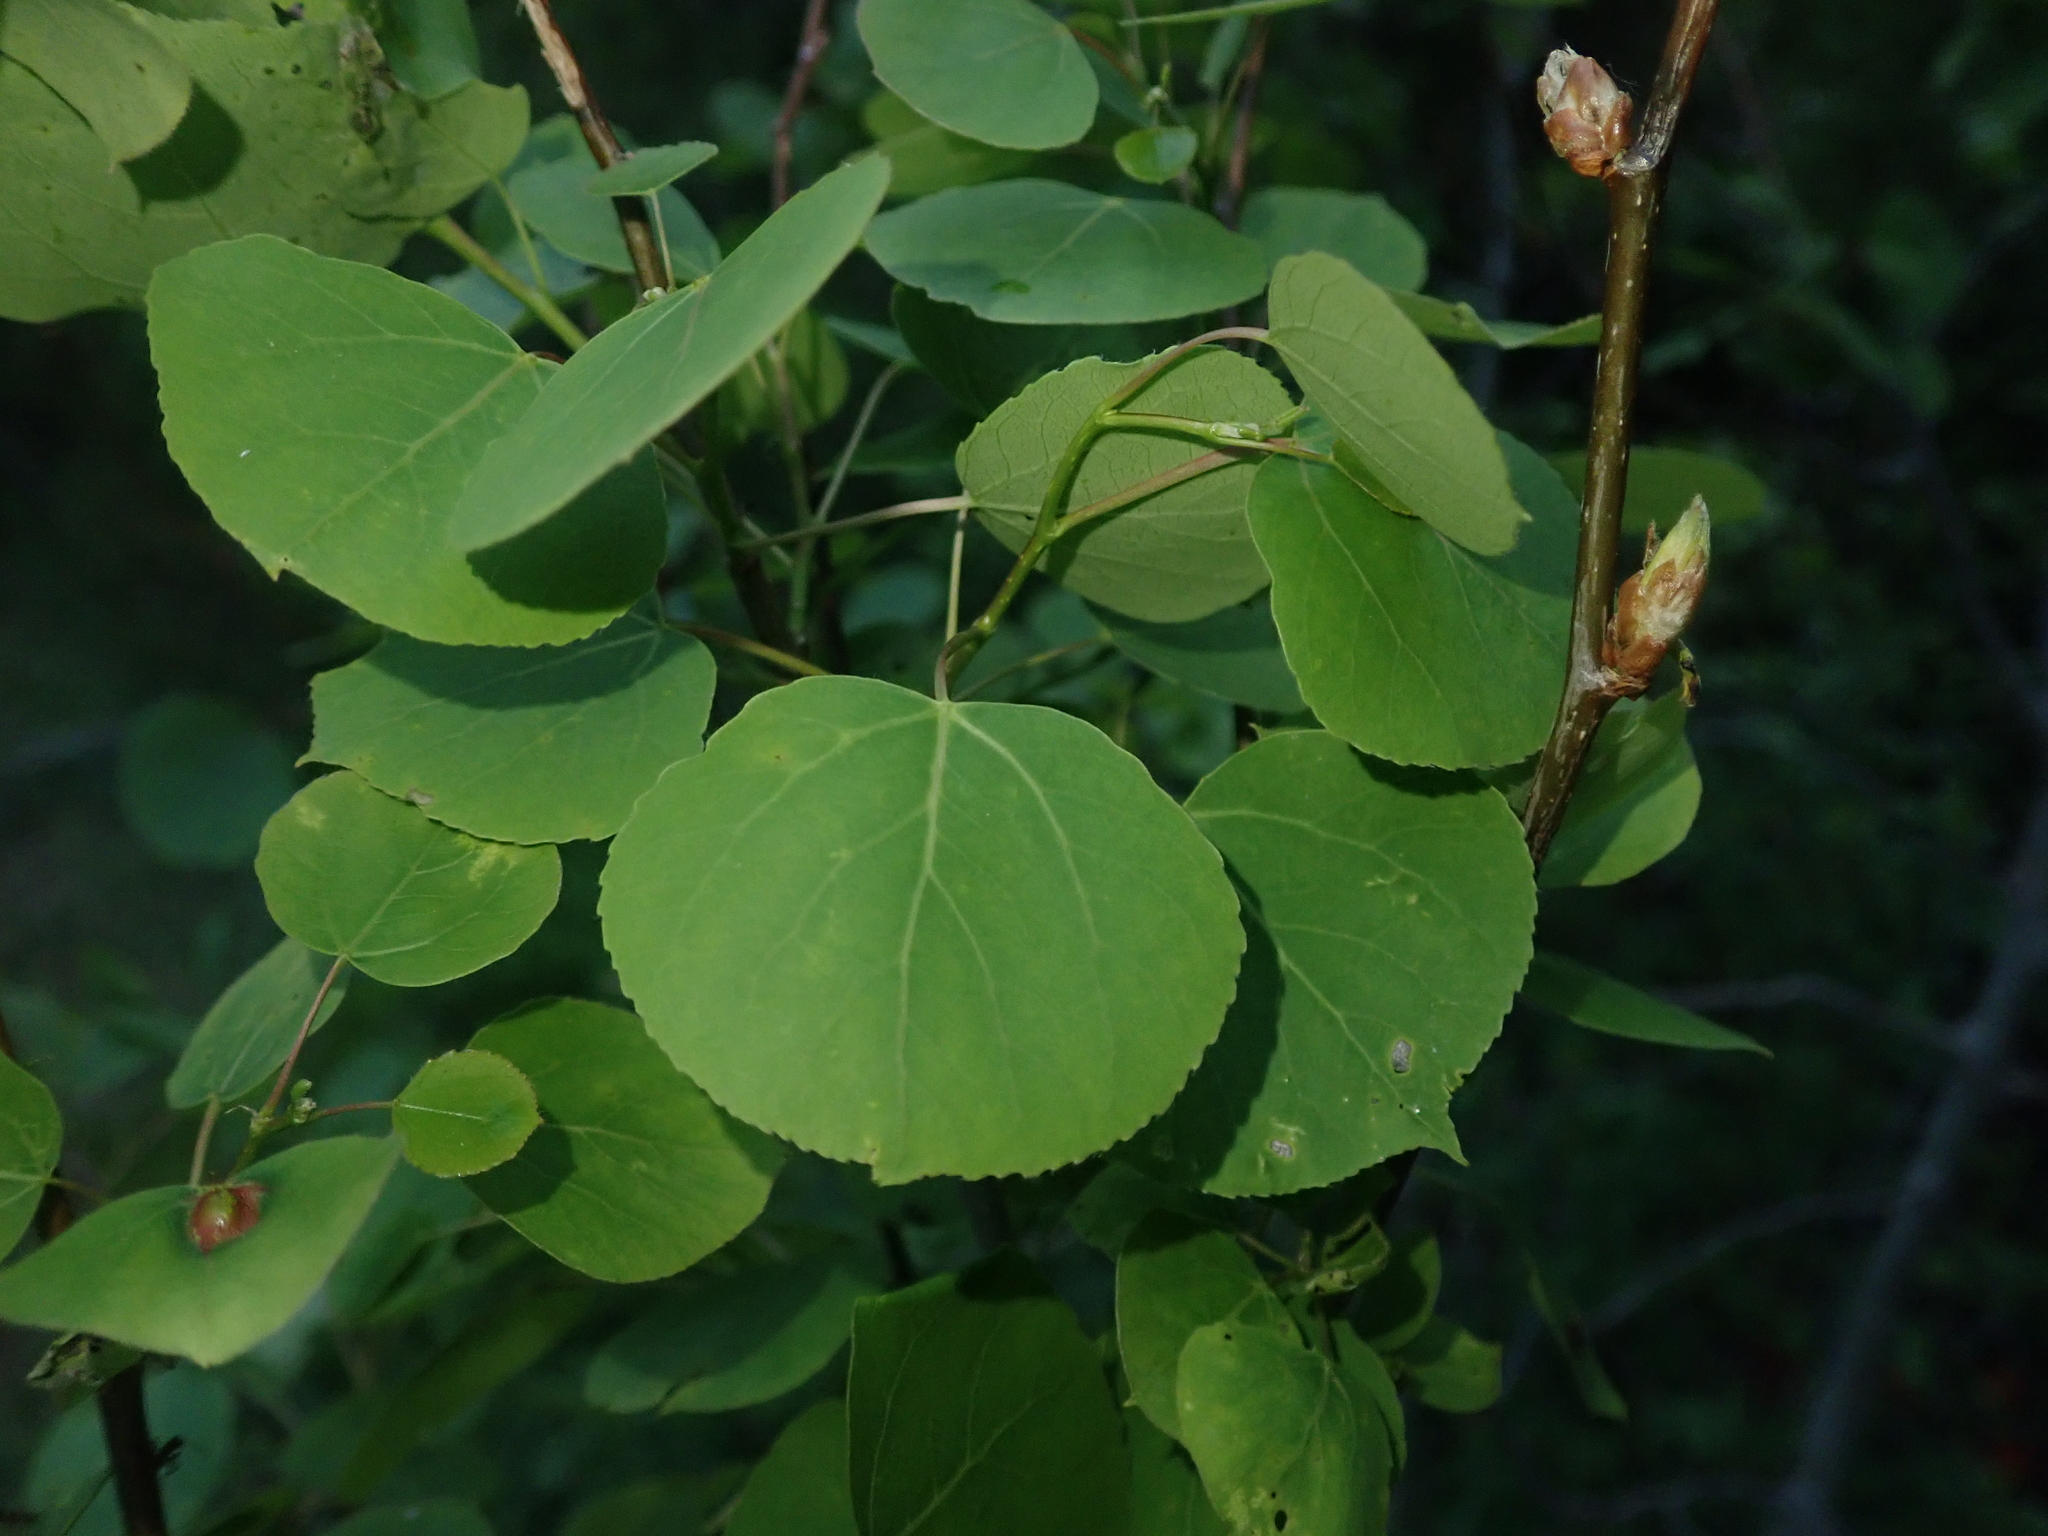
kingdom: Plantae
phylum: Tracheophyta
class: Magnoliopsida
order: Malpighiales
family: Salicaceae
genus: Populus
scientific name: Populus tremuloides
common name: Quaking aspen
